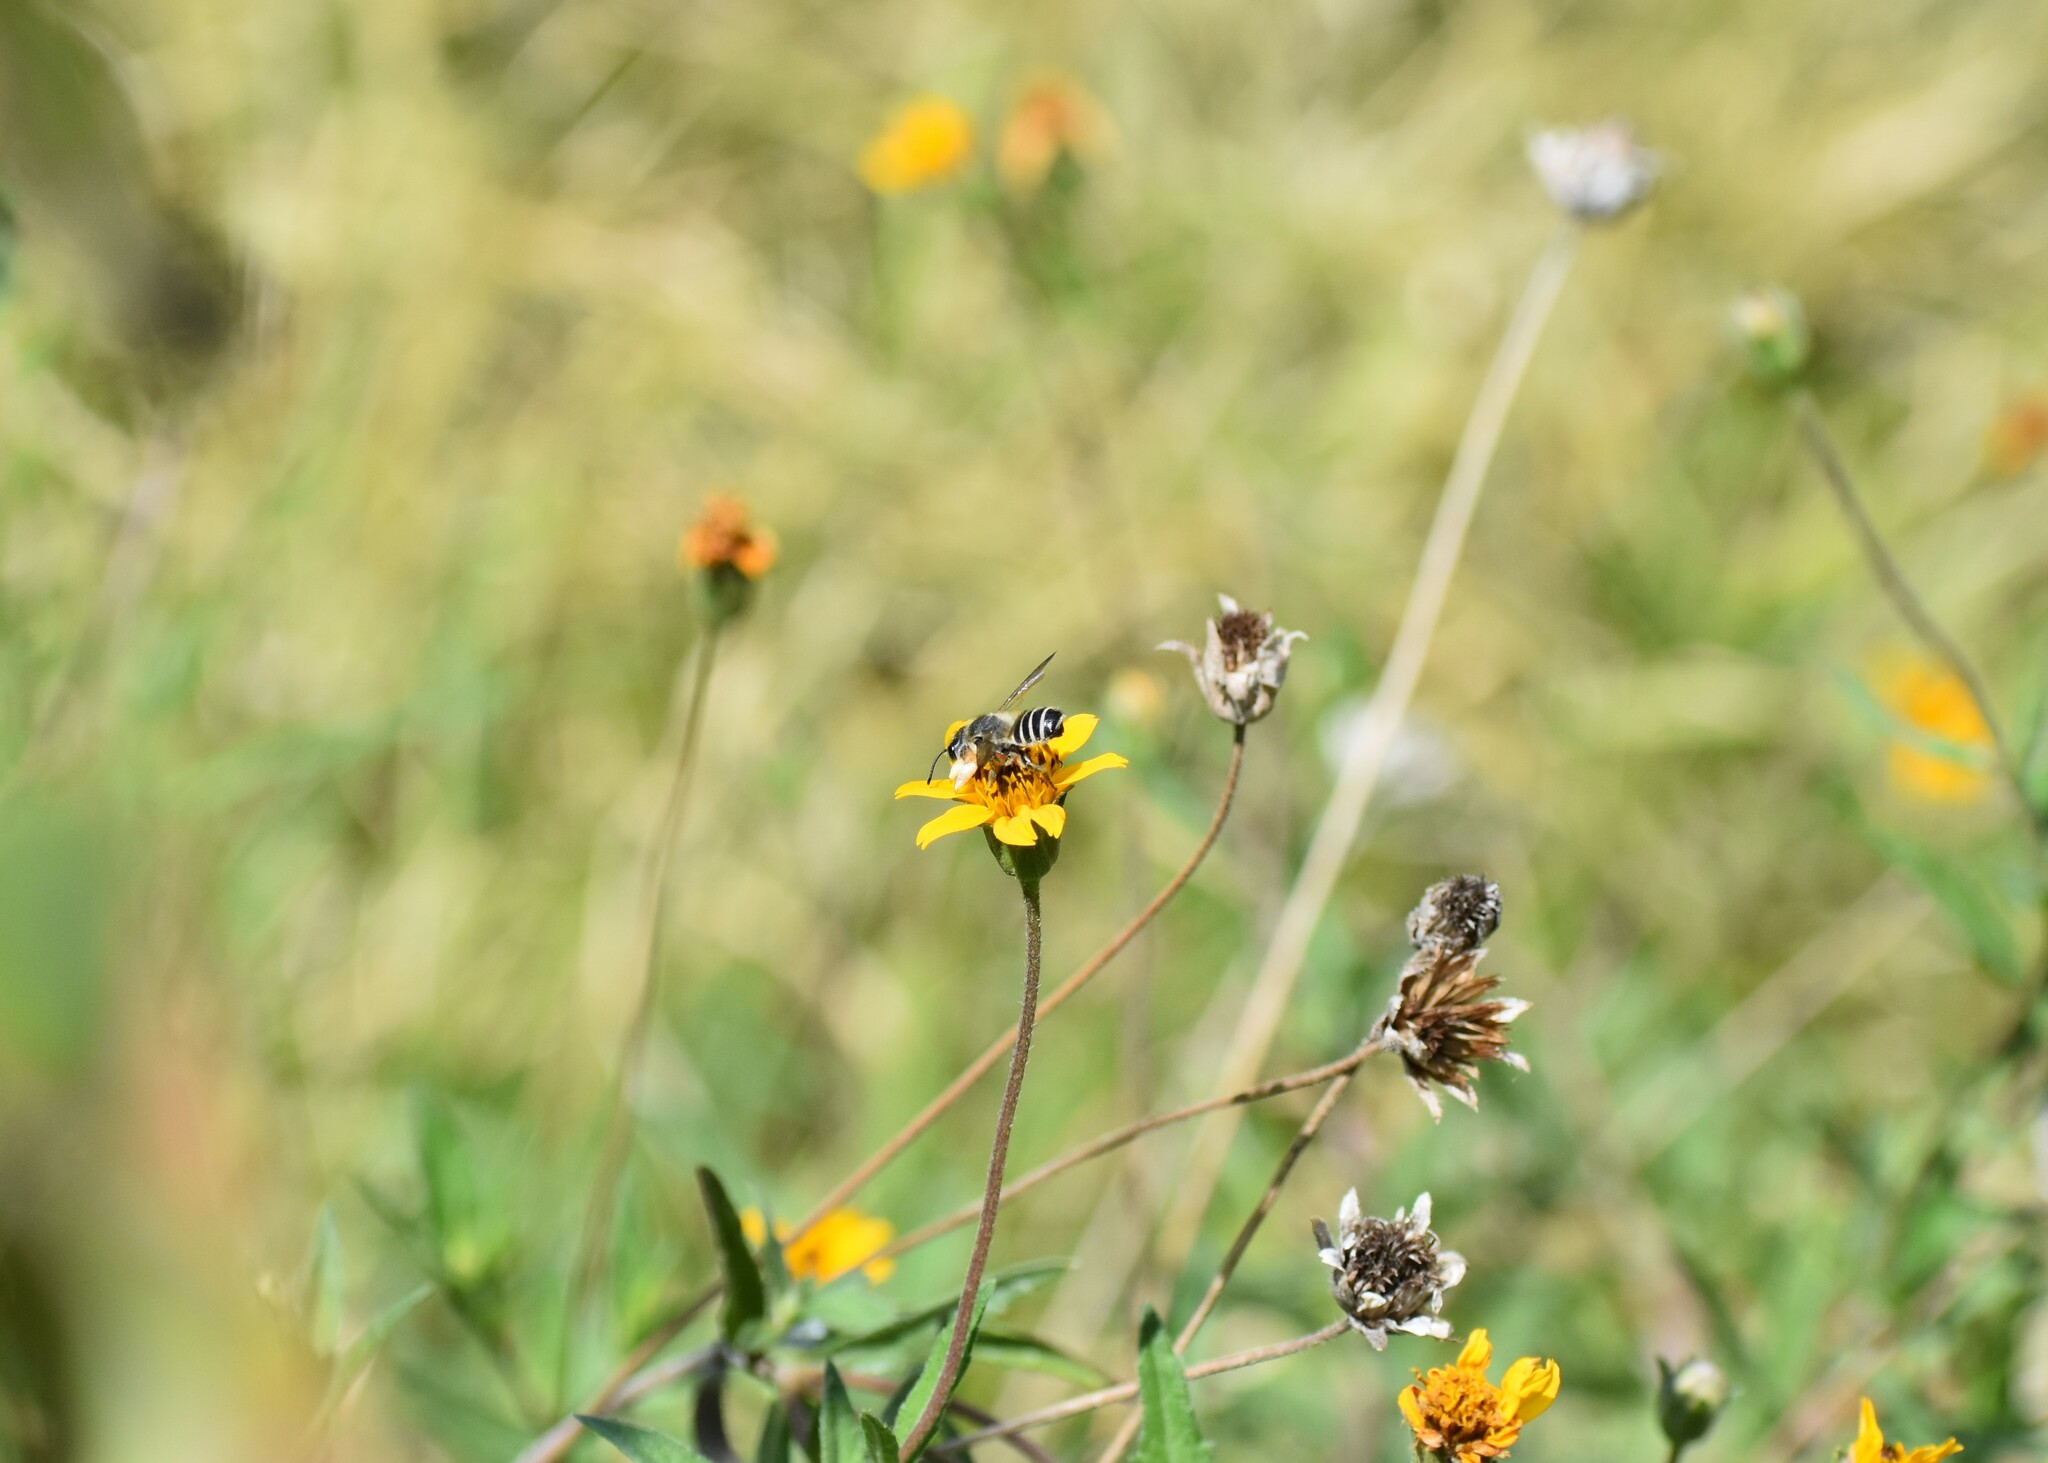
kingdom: Animalia
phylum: Arthropoda
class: Insecta
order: Hymenoptera
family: Megachilidae
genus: Megachile
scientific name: Megachile policaris
